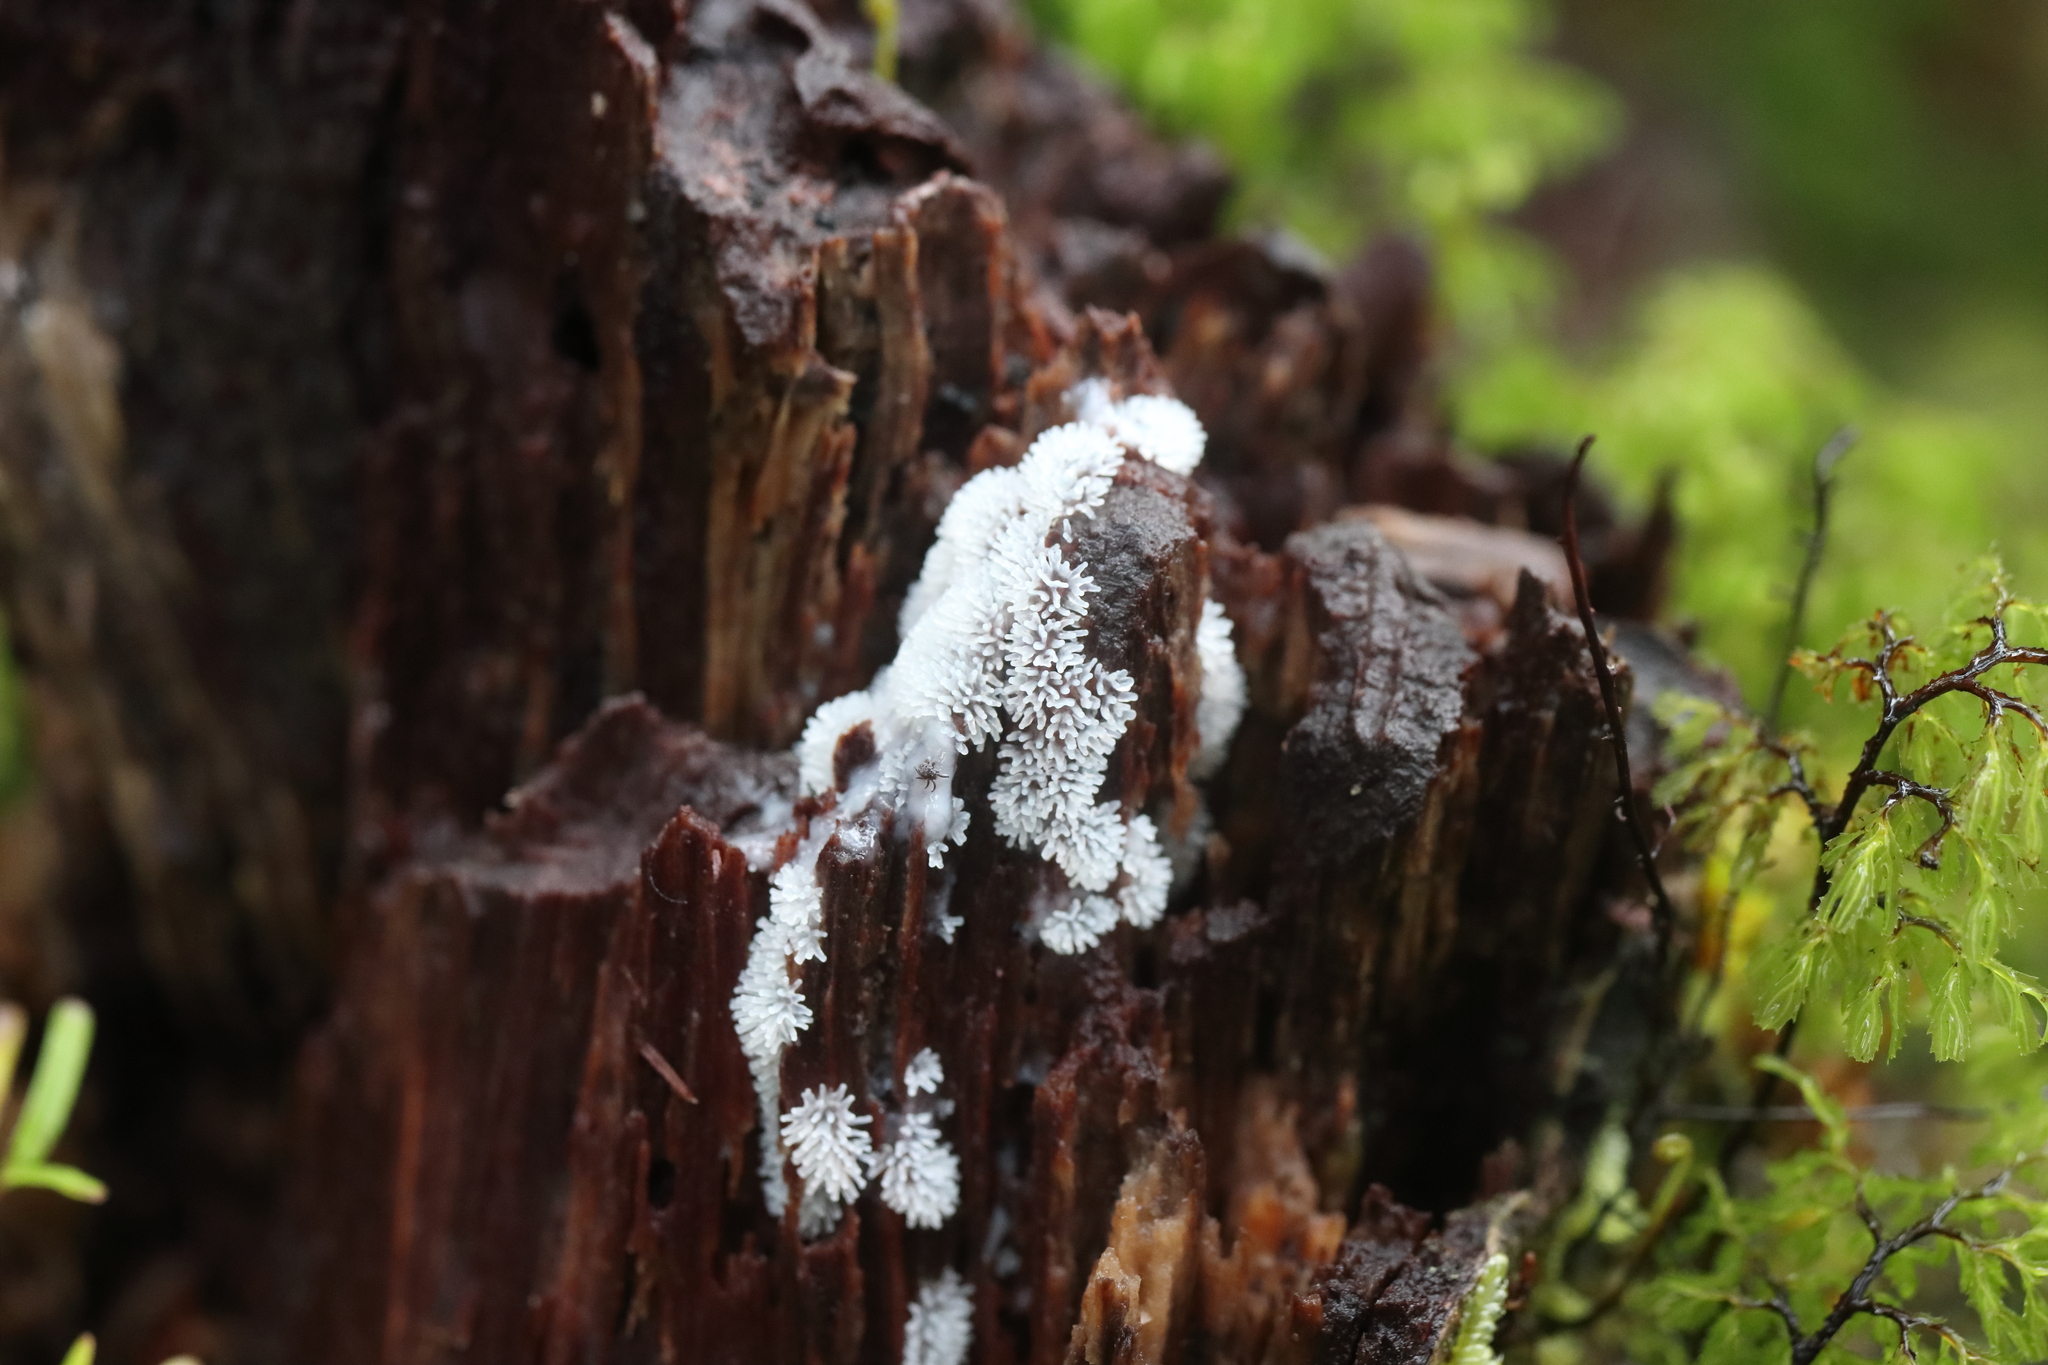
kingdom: Protozoa
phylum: Mycetozoa
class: Protosteliomycetes
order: Ceratiomyxales
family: Ceratiomyxaceae
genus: Ceratiomyxa
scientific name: Ceratiomyxa fruticulosa
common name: Honeycomb coral slime mold
